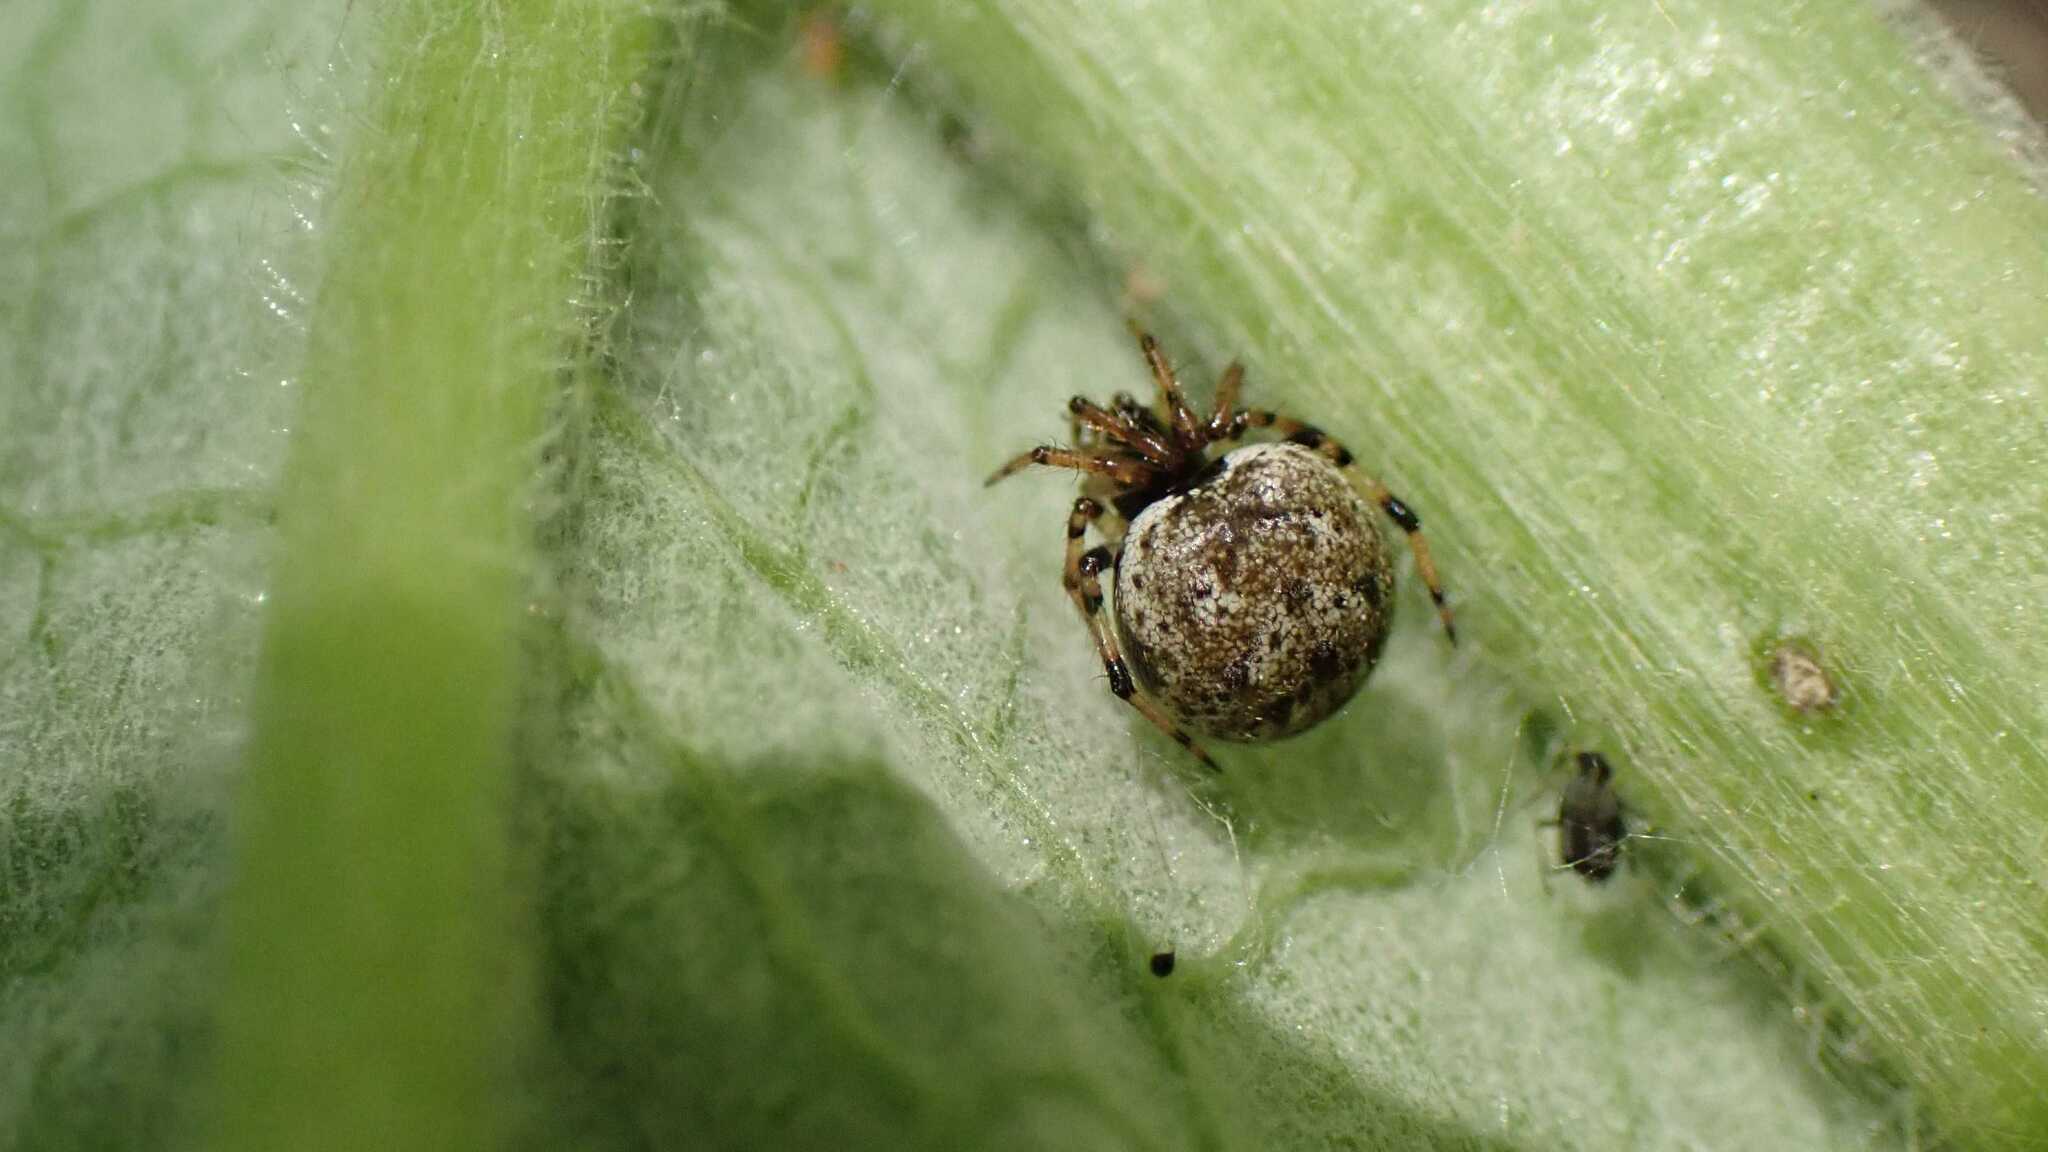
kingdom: Animalia
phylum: Arthropoda
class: Arachnida
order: Araneae
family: Theridiidae
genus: Dipoena
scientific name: Dipoena melanogaster
